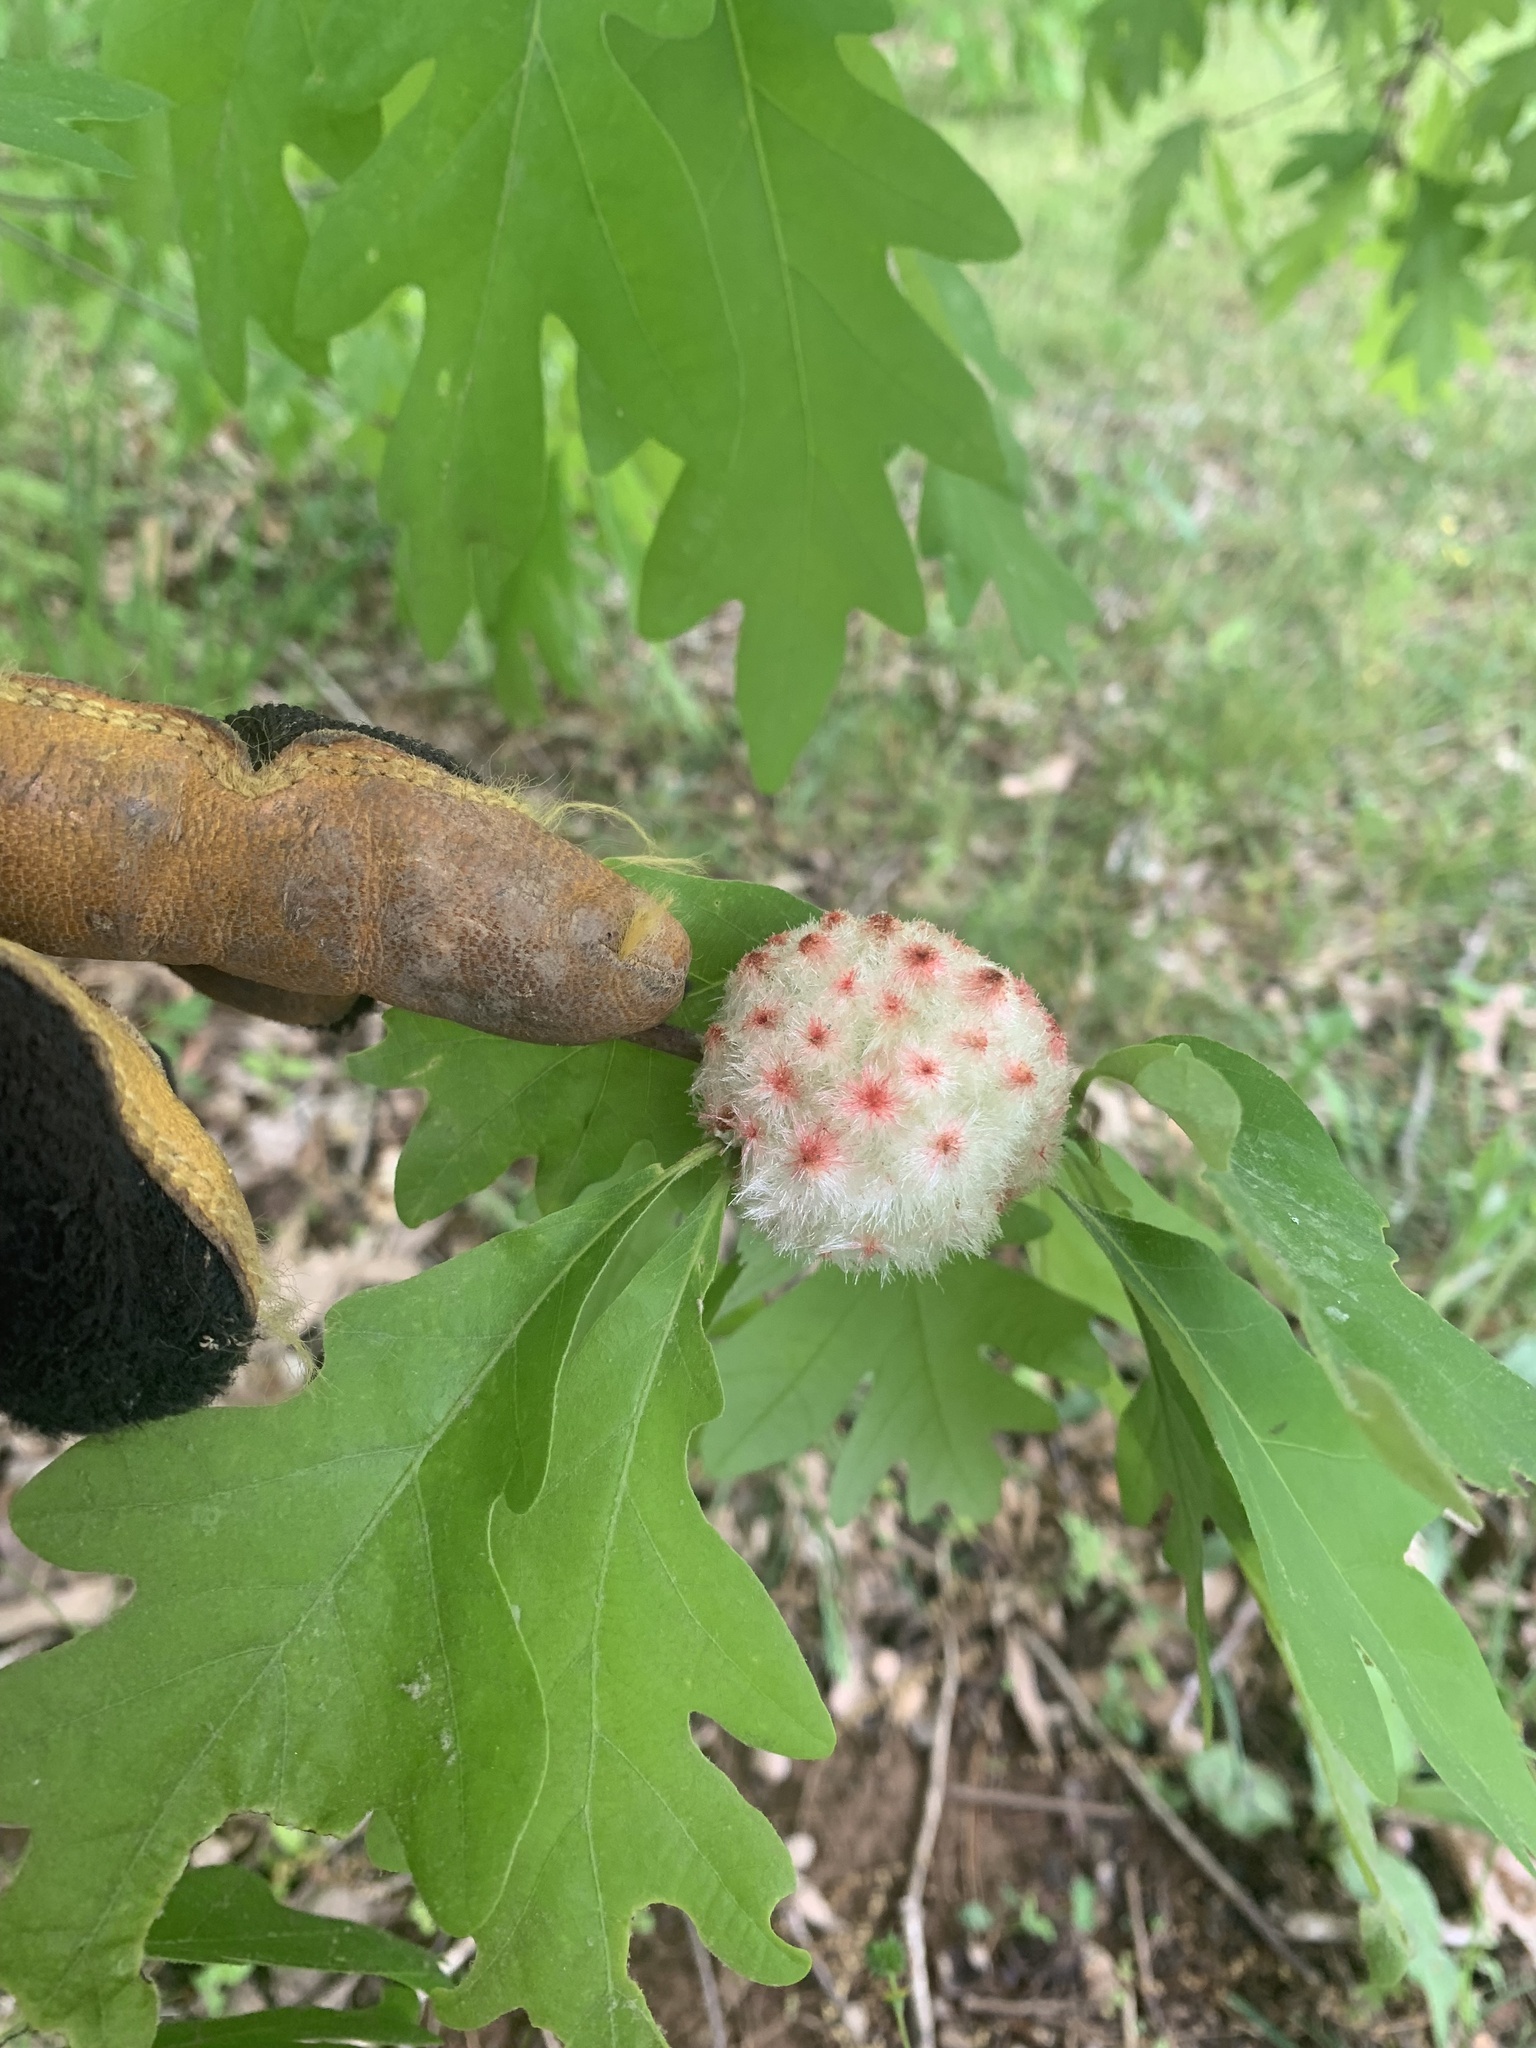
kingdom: Animalia
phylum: Arthropoda
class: Insecta
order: Hymenoptera
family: Cynipidae
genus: Callirhytis
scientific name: Callirhytis
